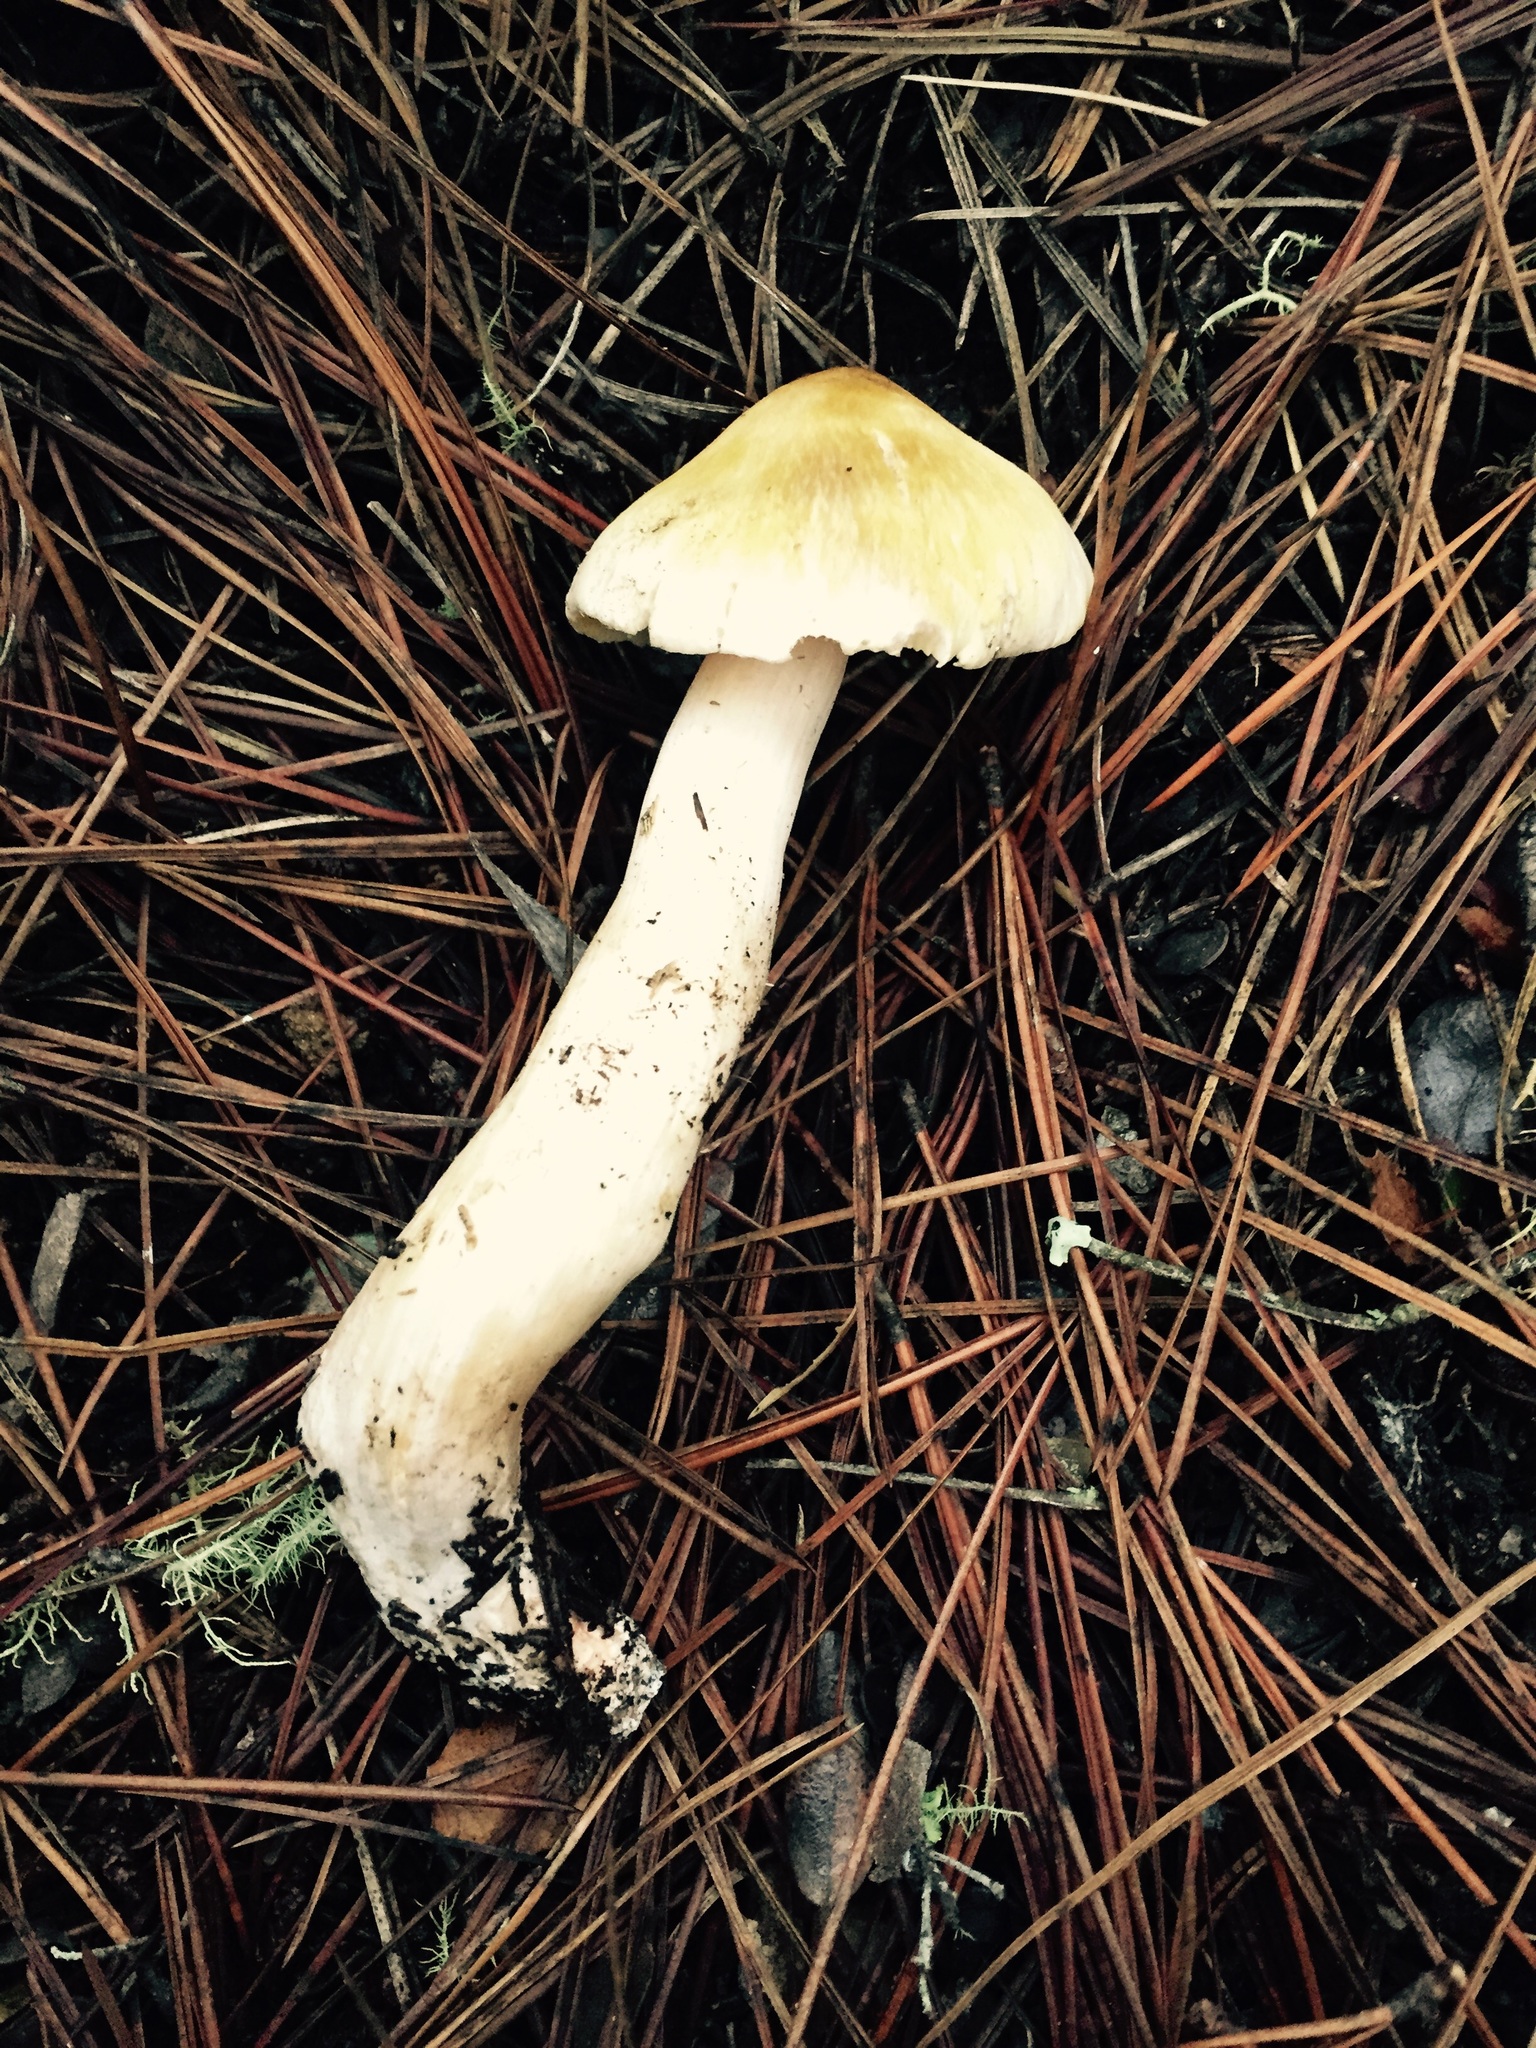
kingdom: Fungi
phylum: Basidiomycota
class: Agaricomycetes
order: Agaricales
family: Tricholomataceae
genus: Tricholoma
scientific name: Tricholoma arvernense
